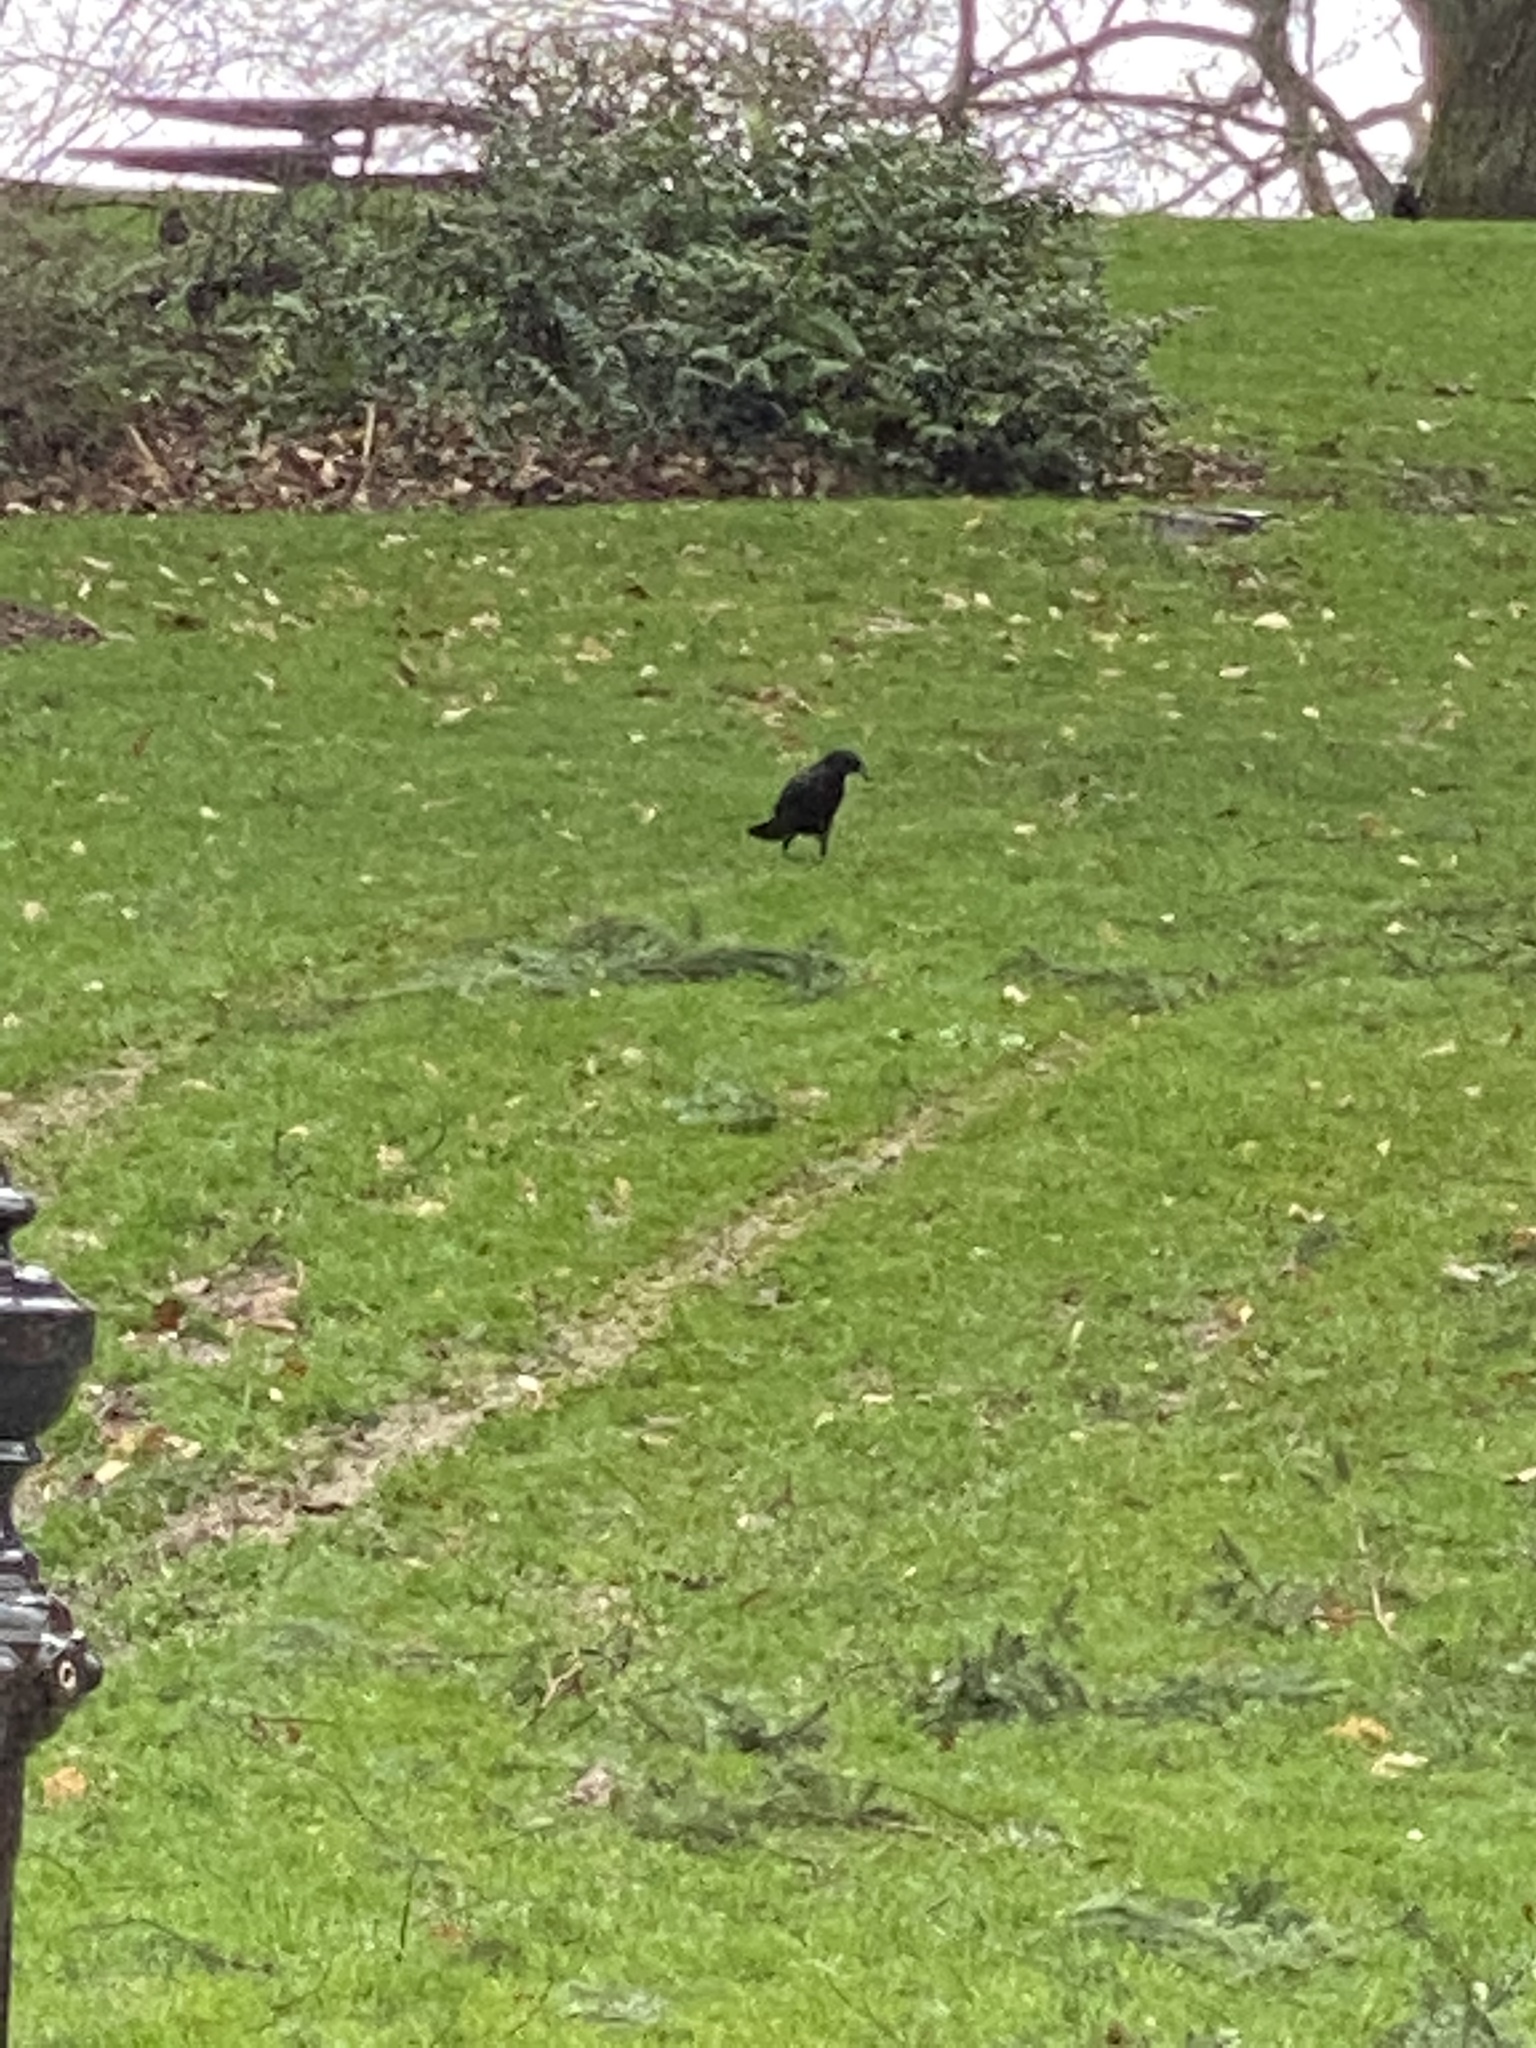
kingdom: Animalia
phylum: Chordata
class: Aves
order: Passeriformes
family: Corvidae
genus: Corvus
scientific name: Corvus brachyrhynchos
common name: American crow
